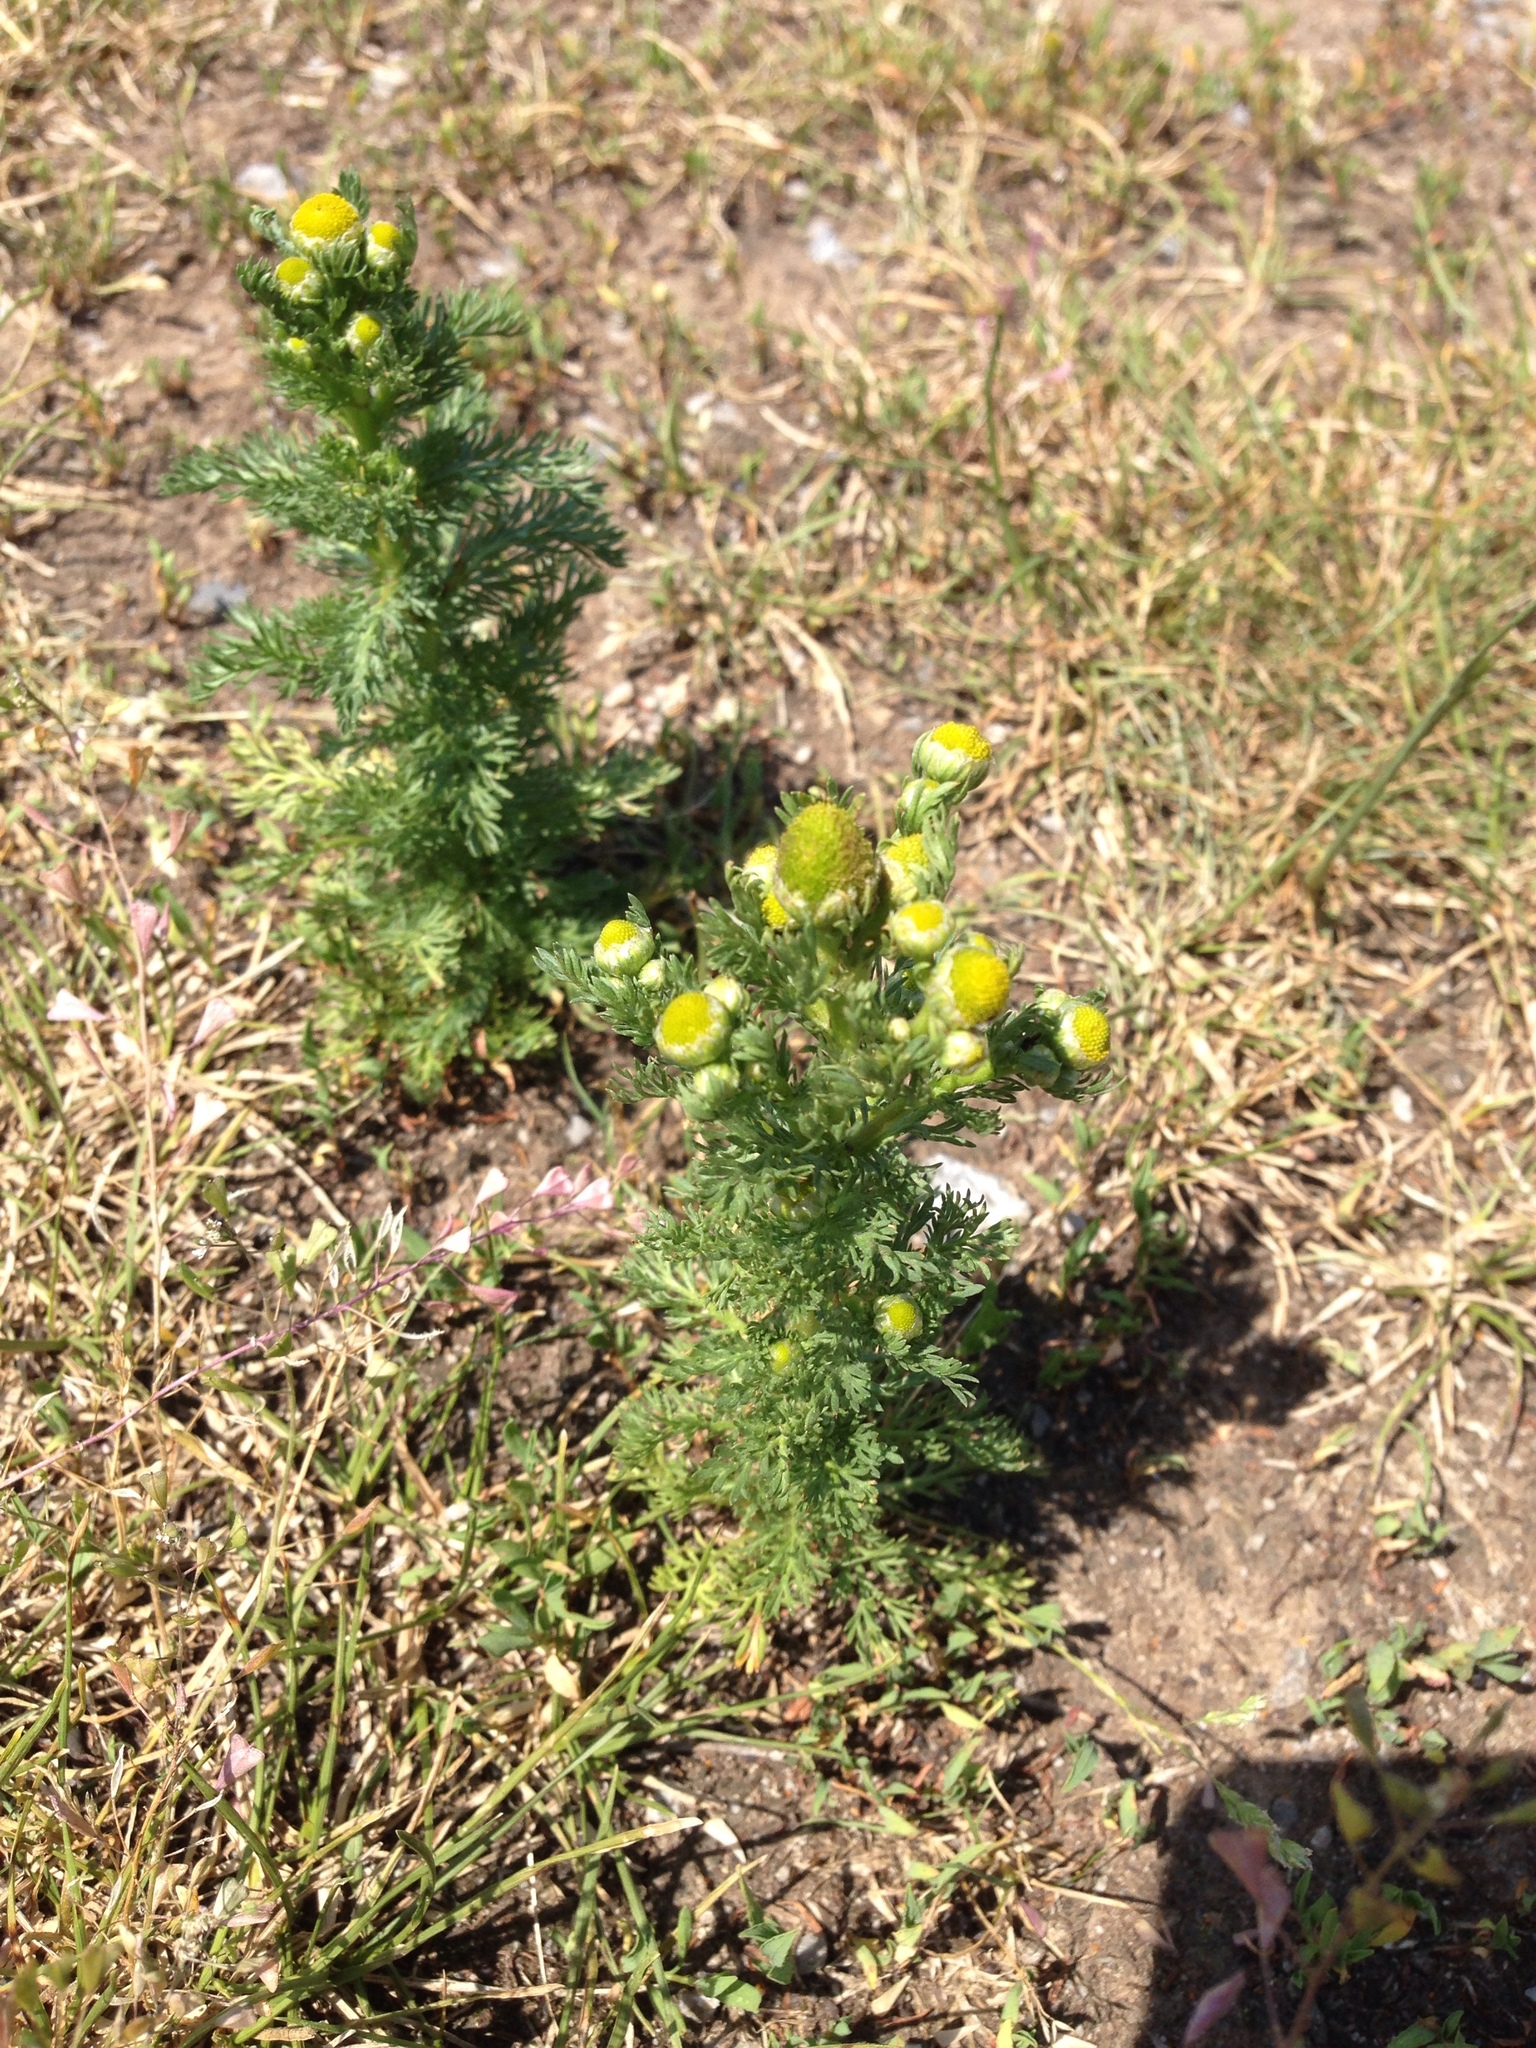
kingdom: Plantae
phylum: Tracheophyta
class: Magnoliopsida
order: Asterales
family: Asteraceae
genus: Matricaria
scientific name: Matricaria discoidea
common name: Disc mayweed
